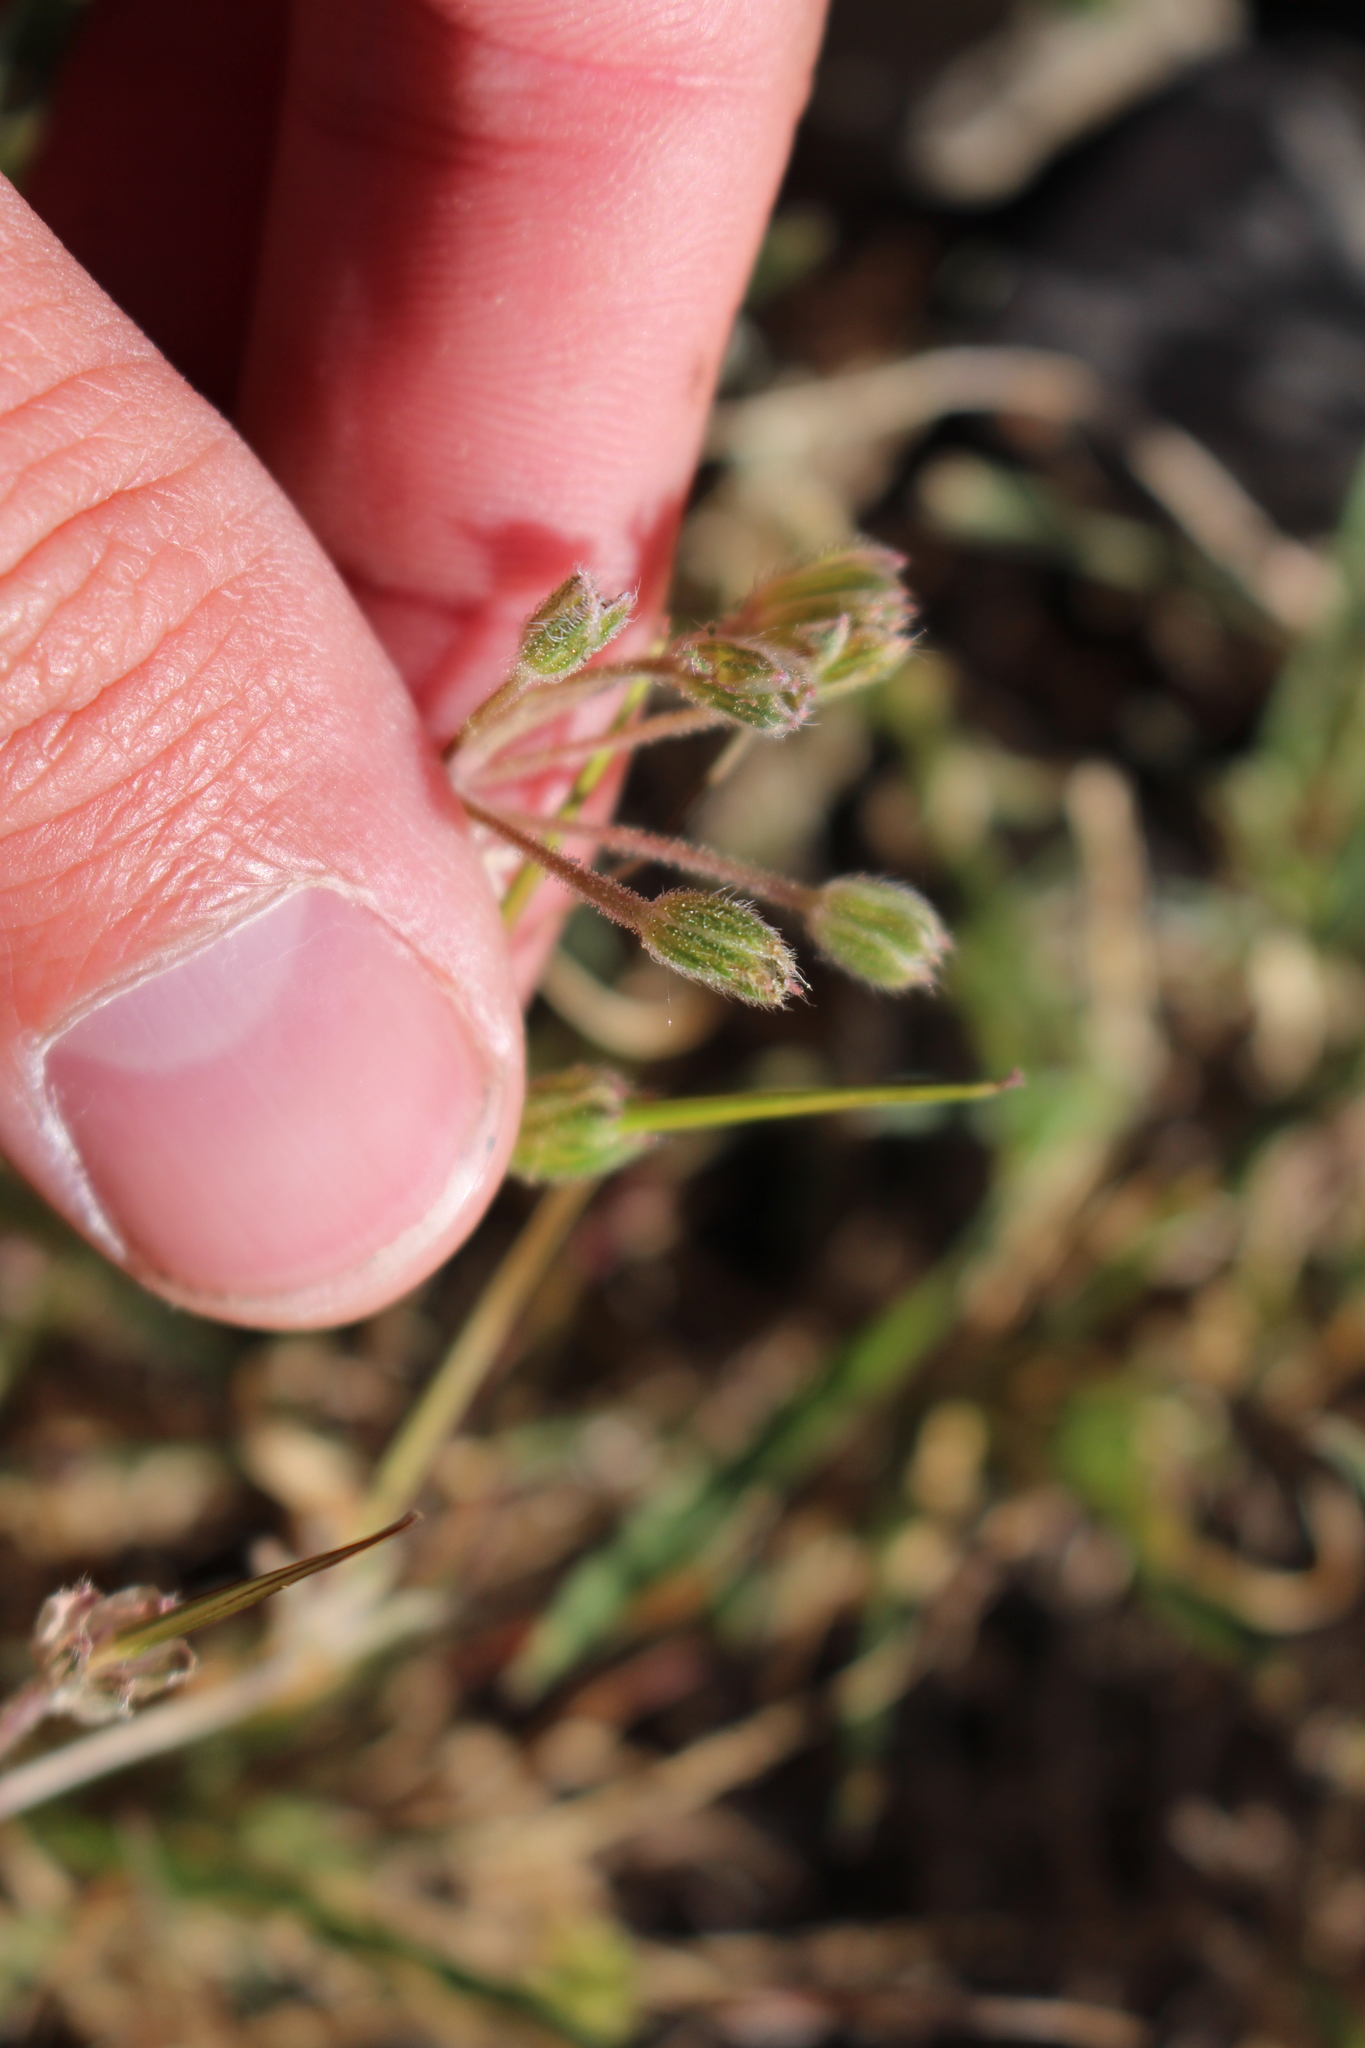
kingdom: Plantae
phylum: Tracheophyta
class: Magnoliopsida
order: Geraniales
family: Geraniaceae
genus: Erodium
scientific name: Erodium malacoides
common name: Soft stork's-bill
